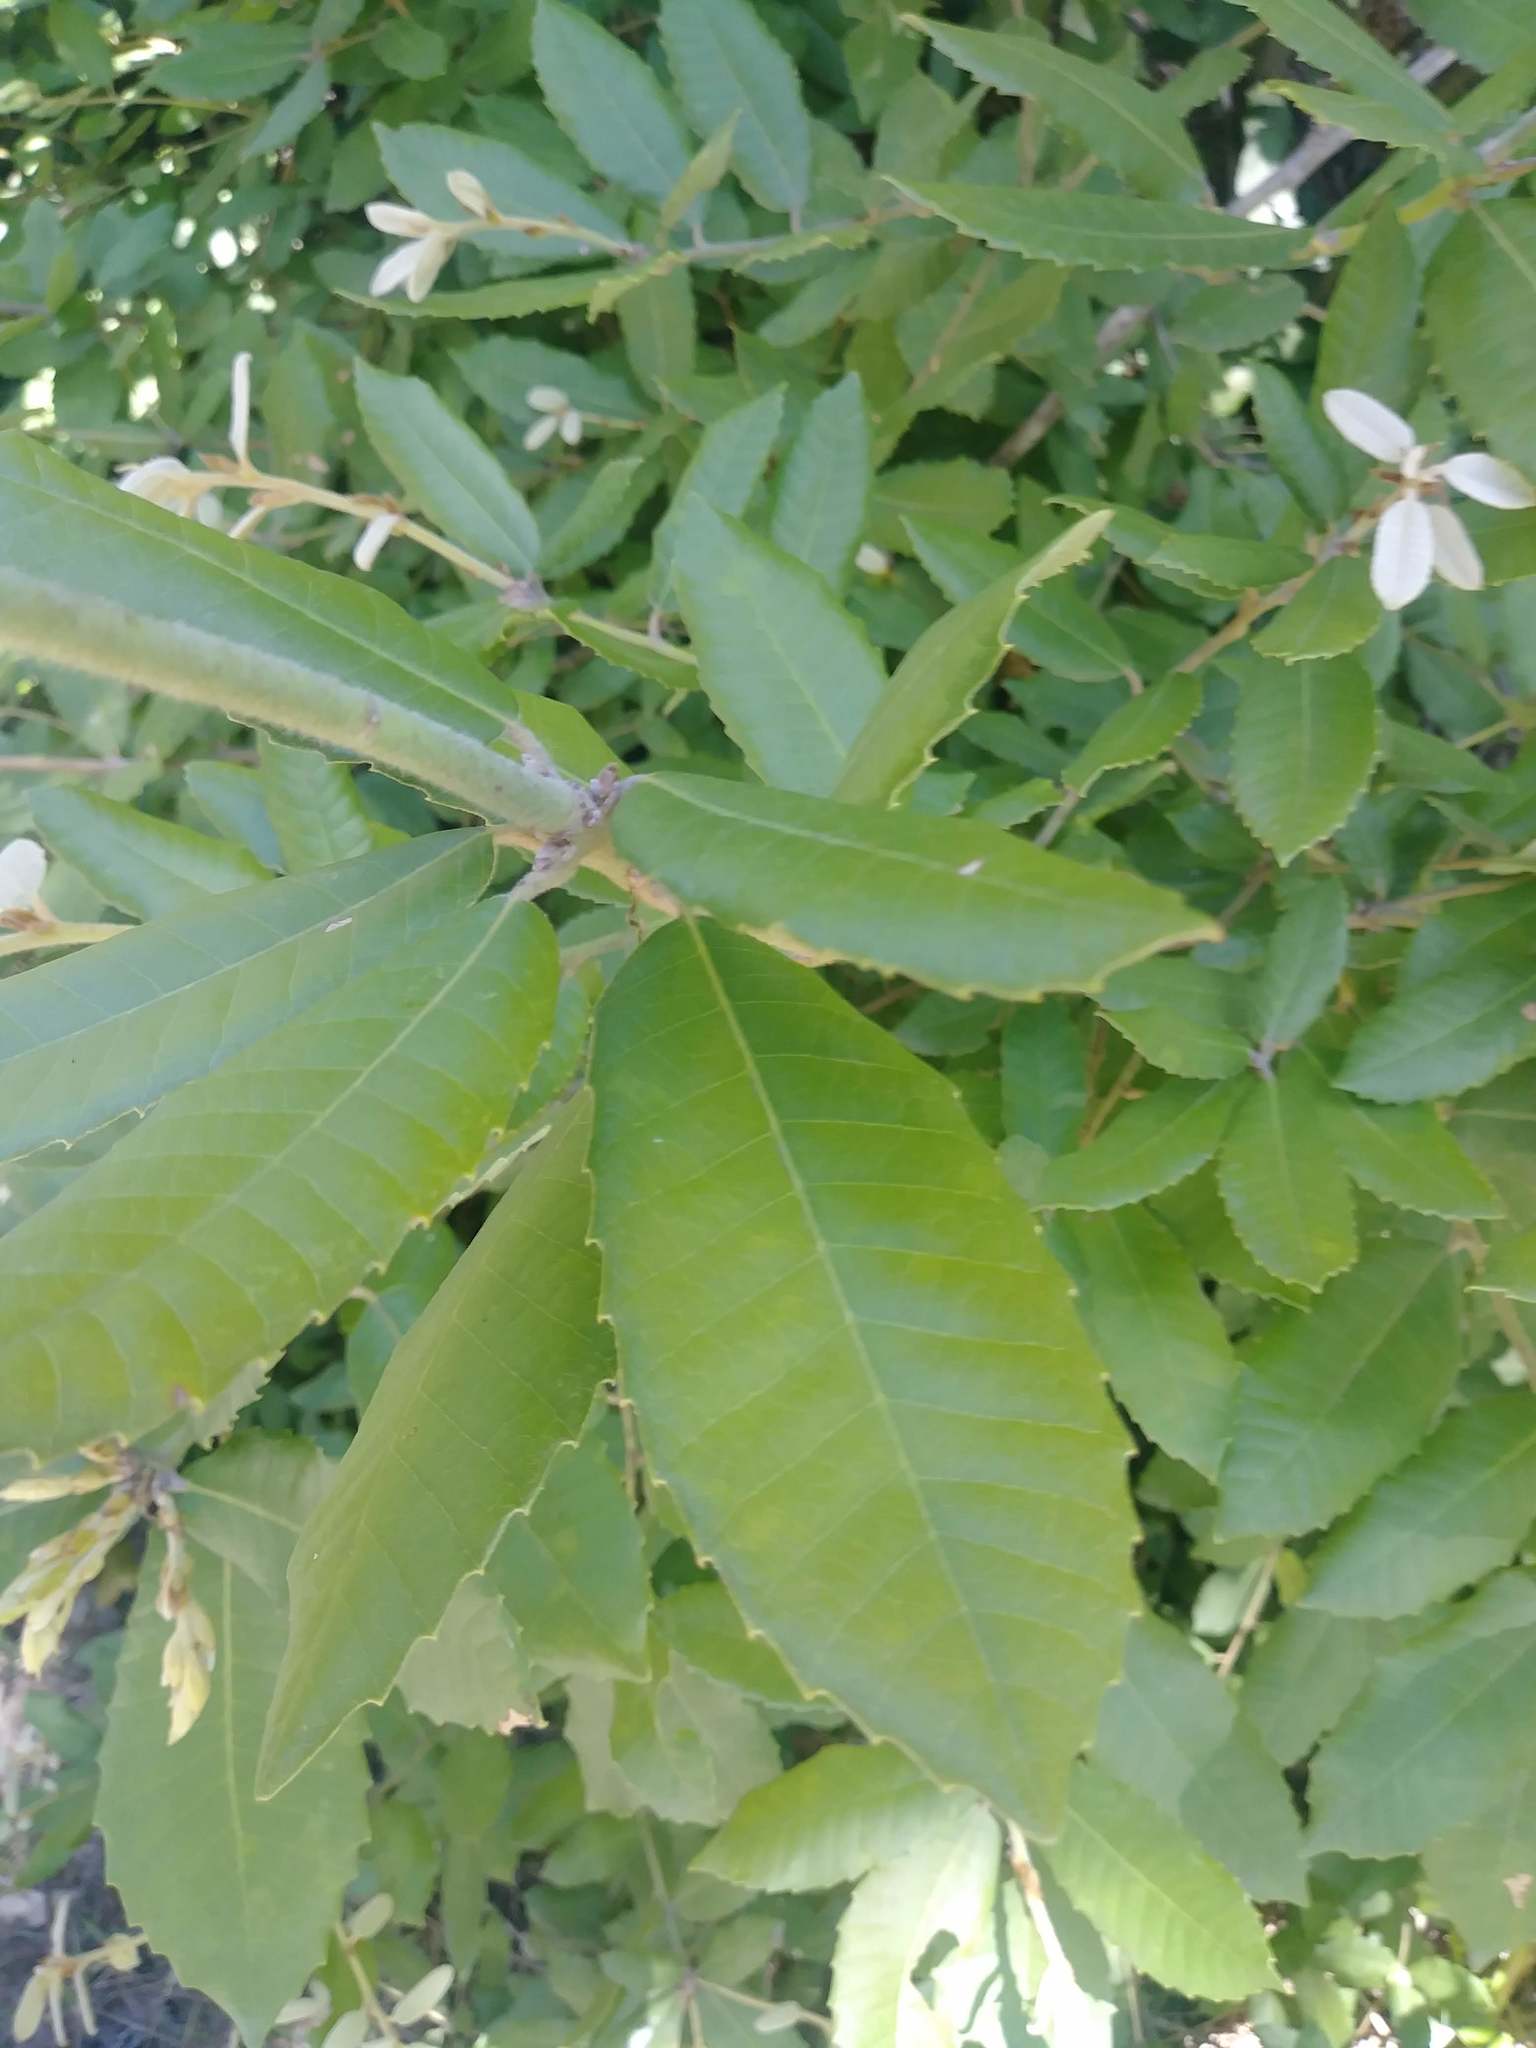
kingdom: Plantae
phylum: Tracheophyta
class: Magnoliopsida
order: Fagales
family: Fagaceae
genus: Notholithocarpus
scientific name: Notholithocarpus densiflorus
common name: Tan bark oak
